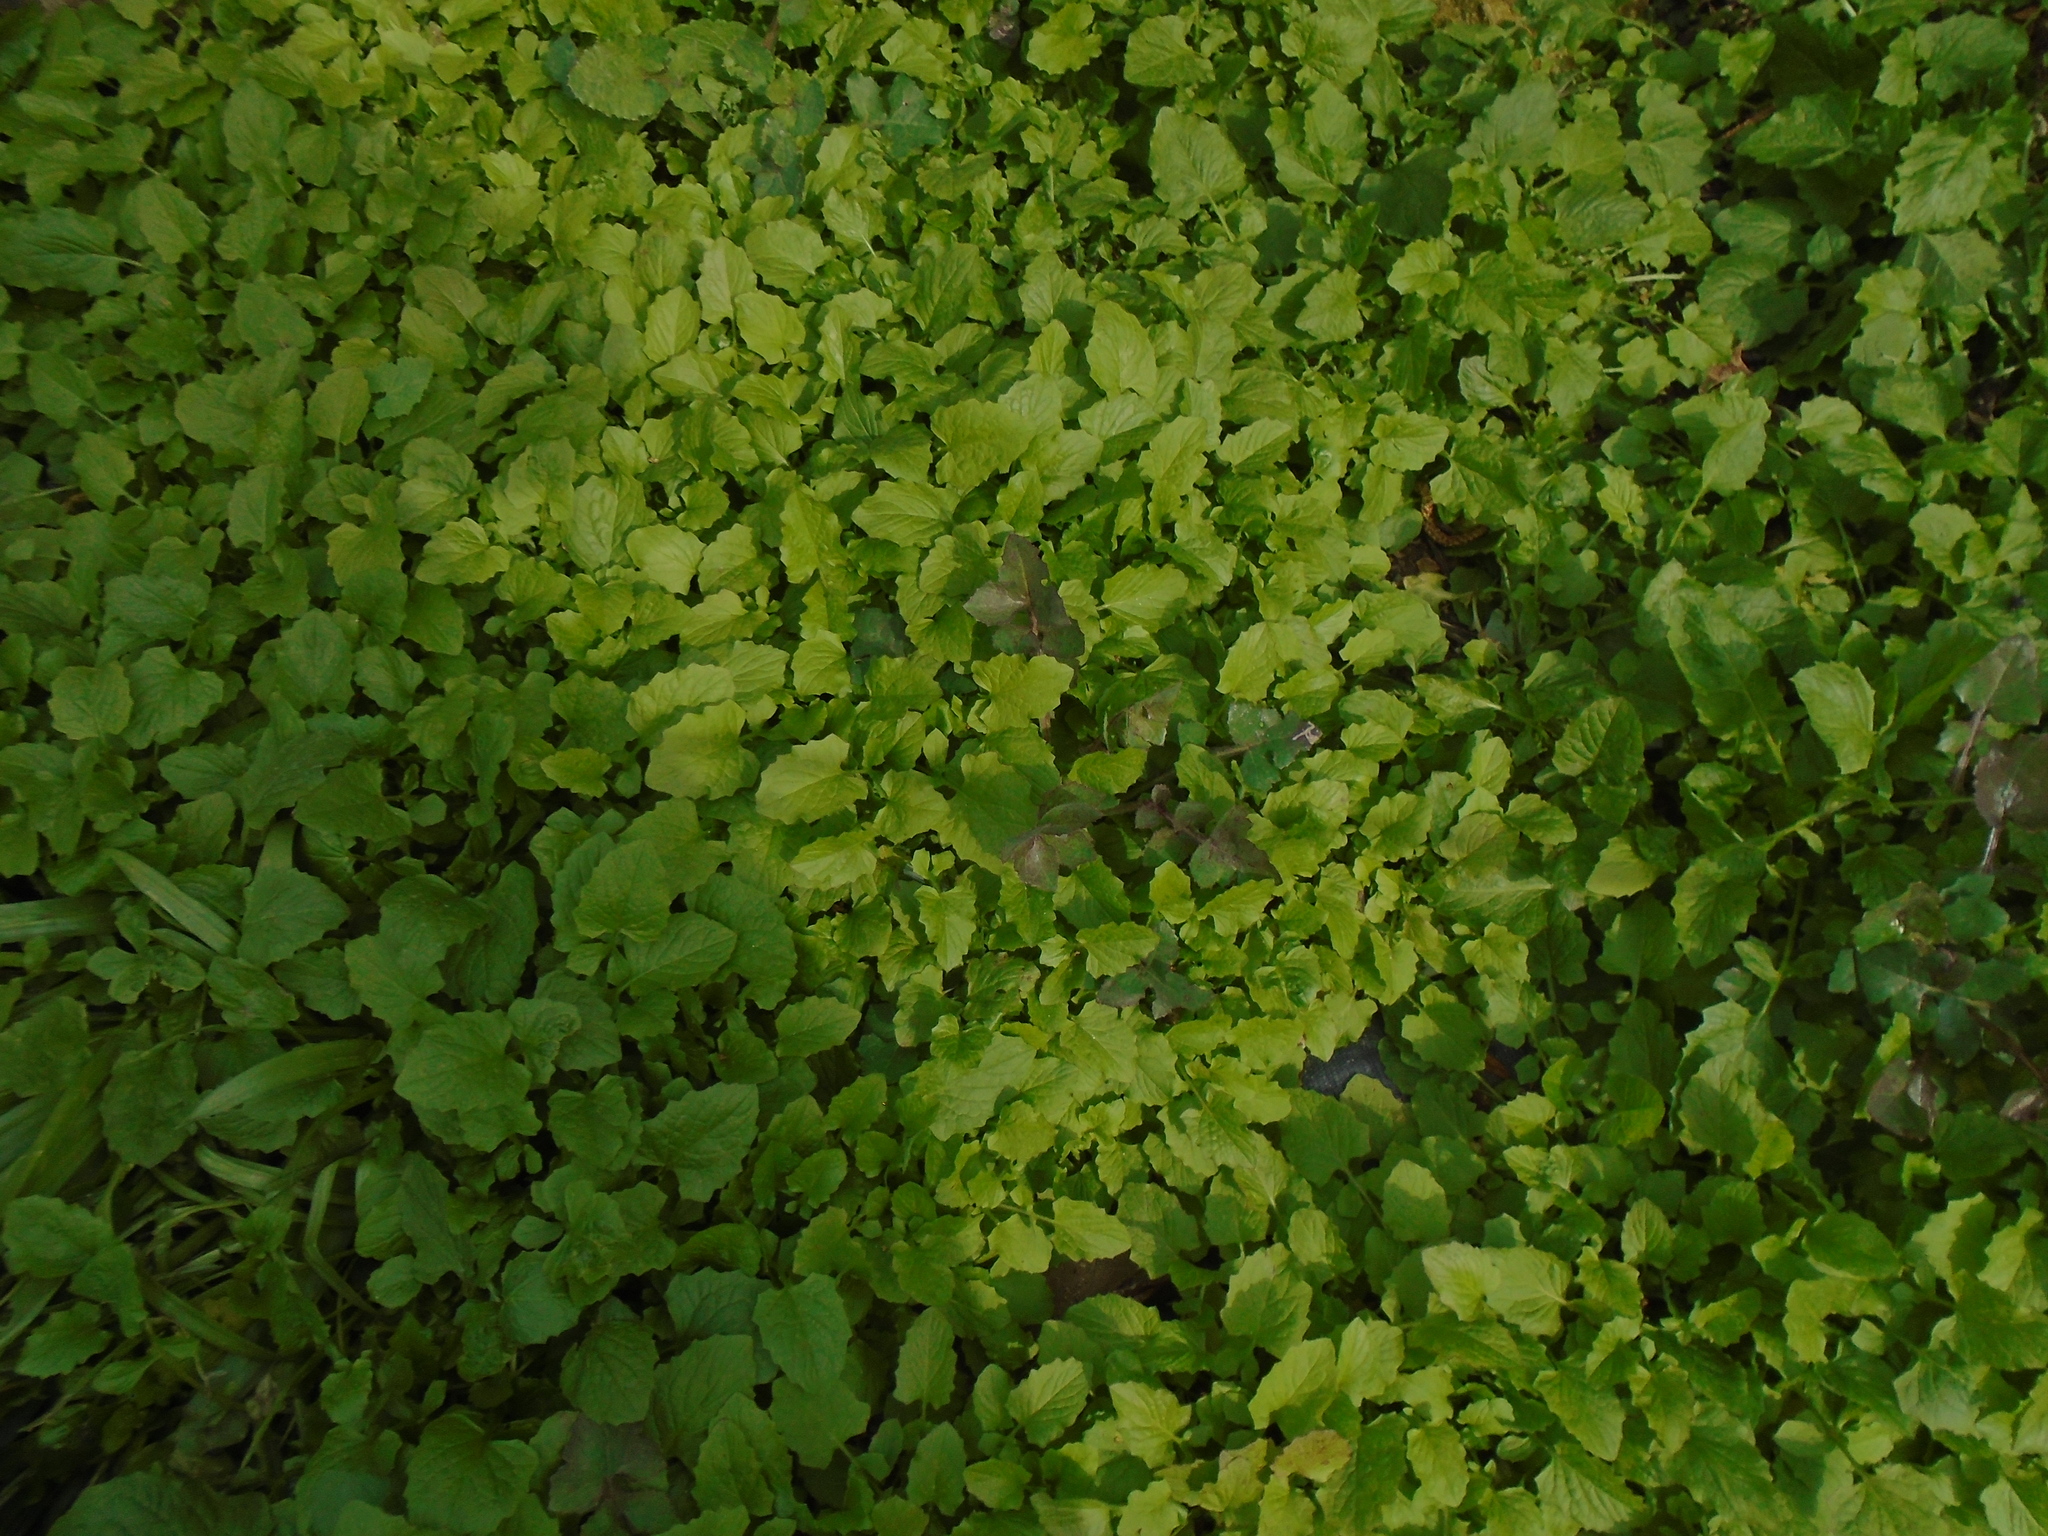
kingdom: Plantae
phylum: Tracheophyta
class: Magnoliopsida
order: Asterales
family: Asteraceae
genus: Lapsana
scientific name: Lapsana communis
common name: Nipplewort
